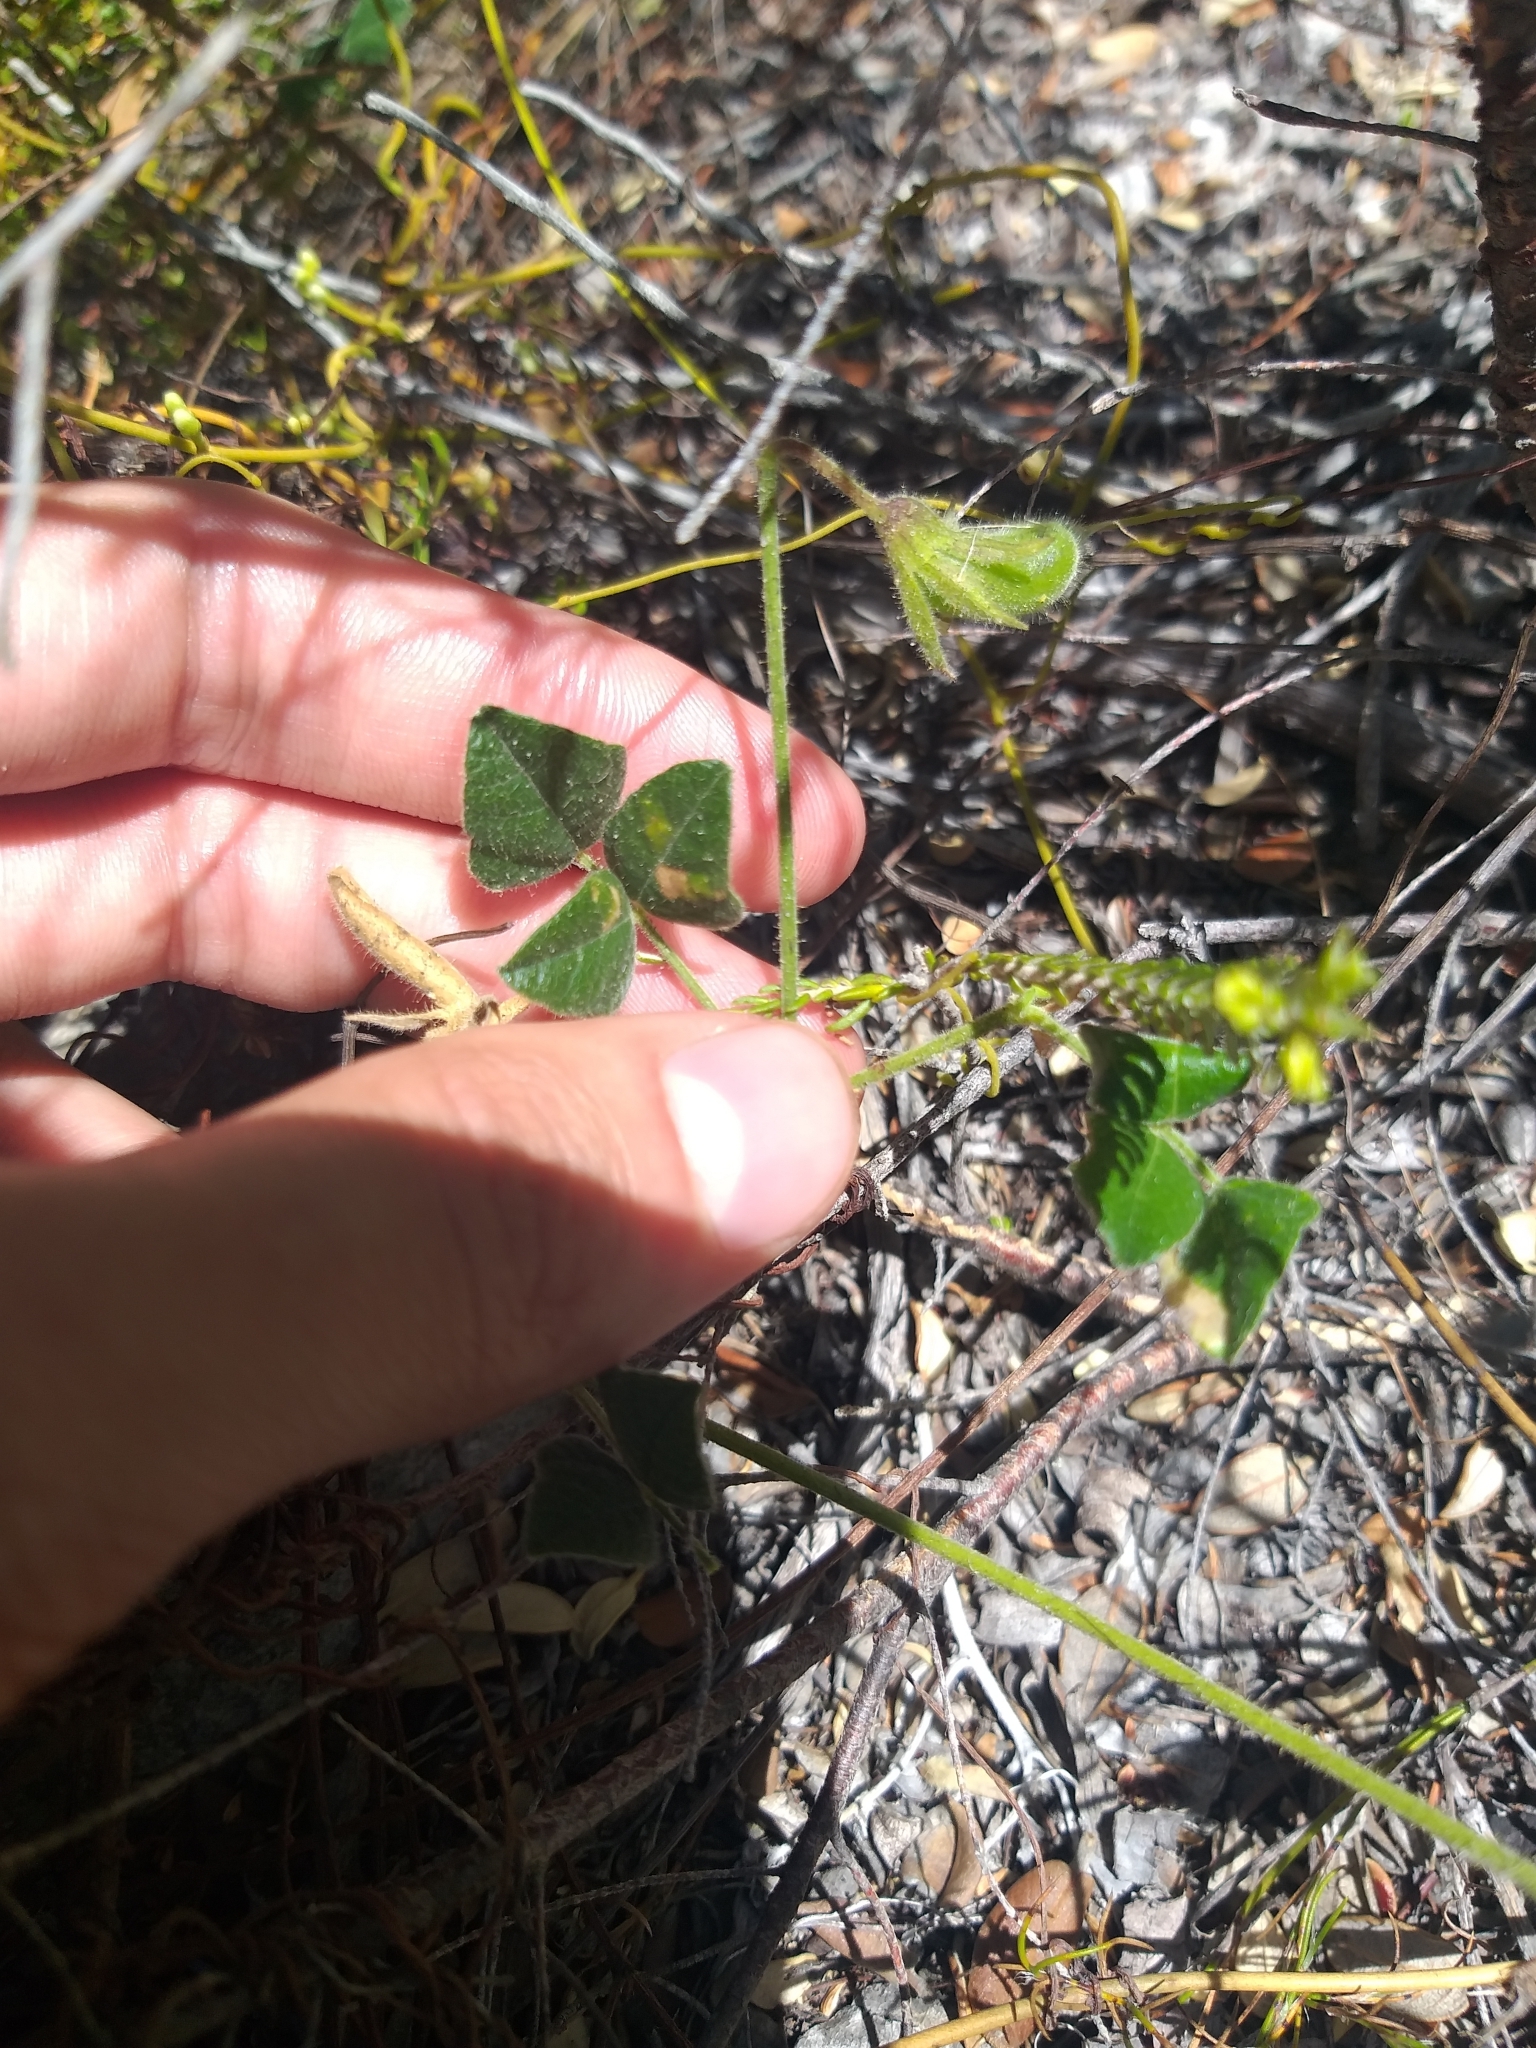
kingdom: Plantae
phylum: Tracheophyta
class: Magnoliopsida
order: Fabales
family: Fabaceae
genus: Bolusafra
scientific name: Bolusafra bituminosa
